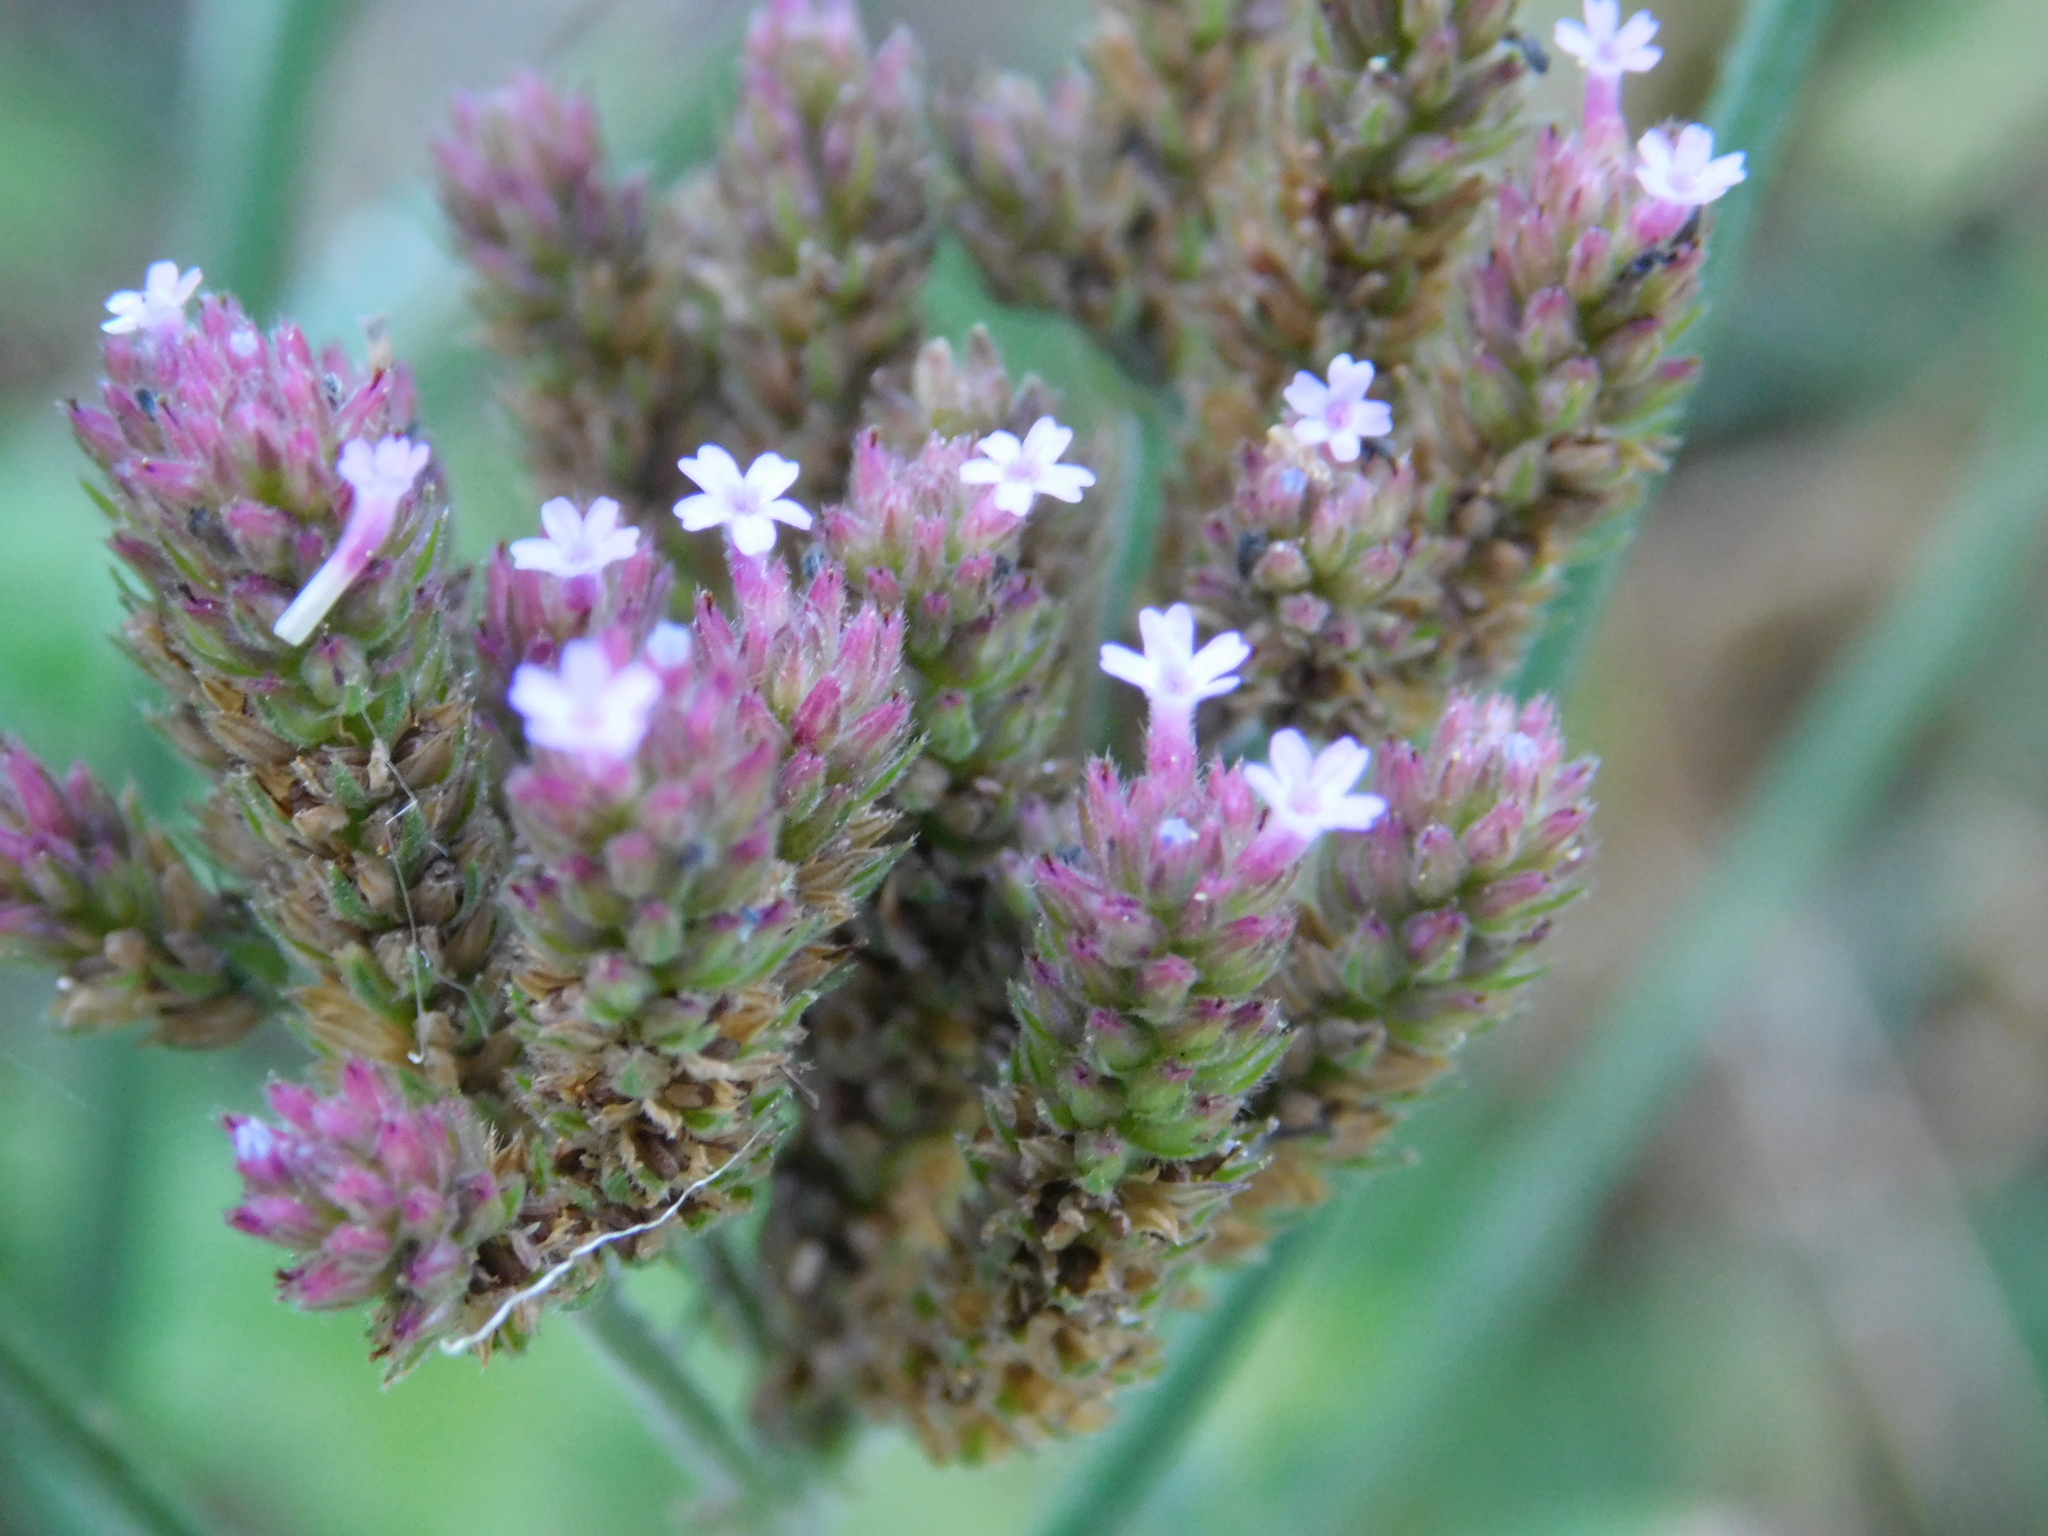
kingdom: Plantae
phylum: Tracheophyta
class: Magnoliopsida
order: Lamiales
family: Verbenaceae
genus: Verbena
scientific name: Verbena bonariensis
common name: Purpletop vervain
